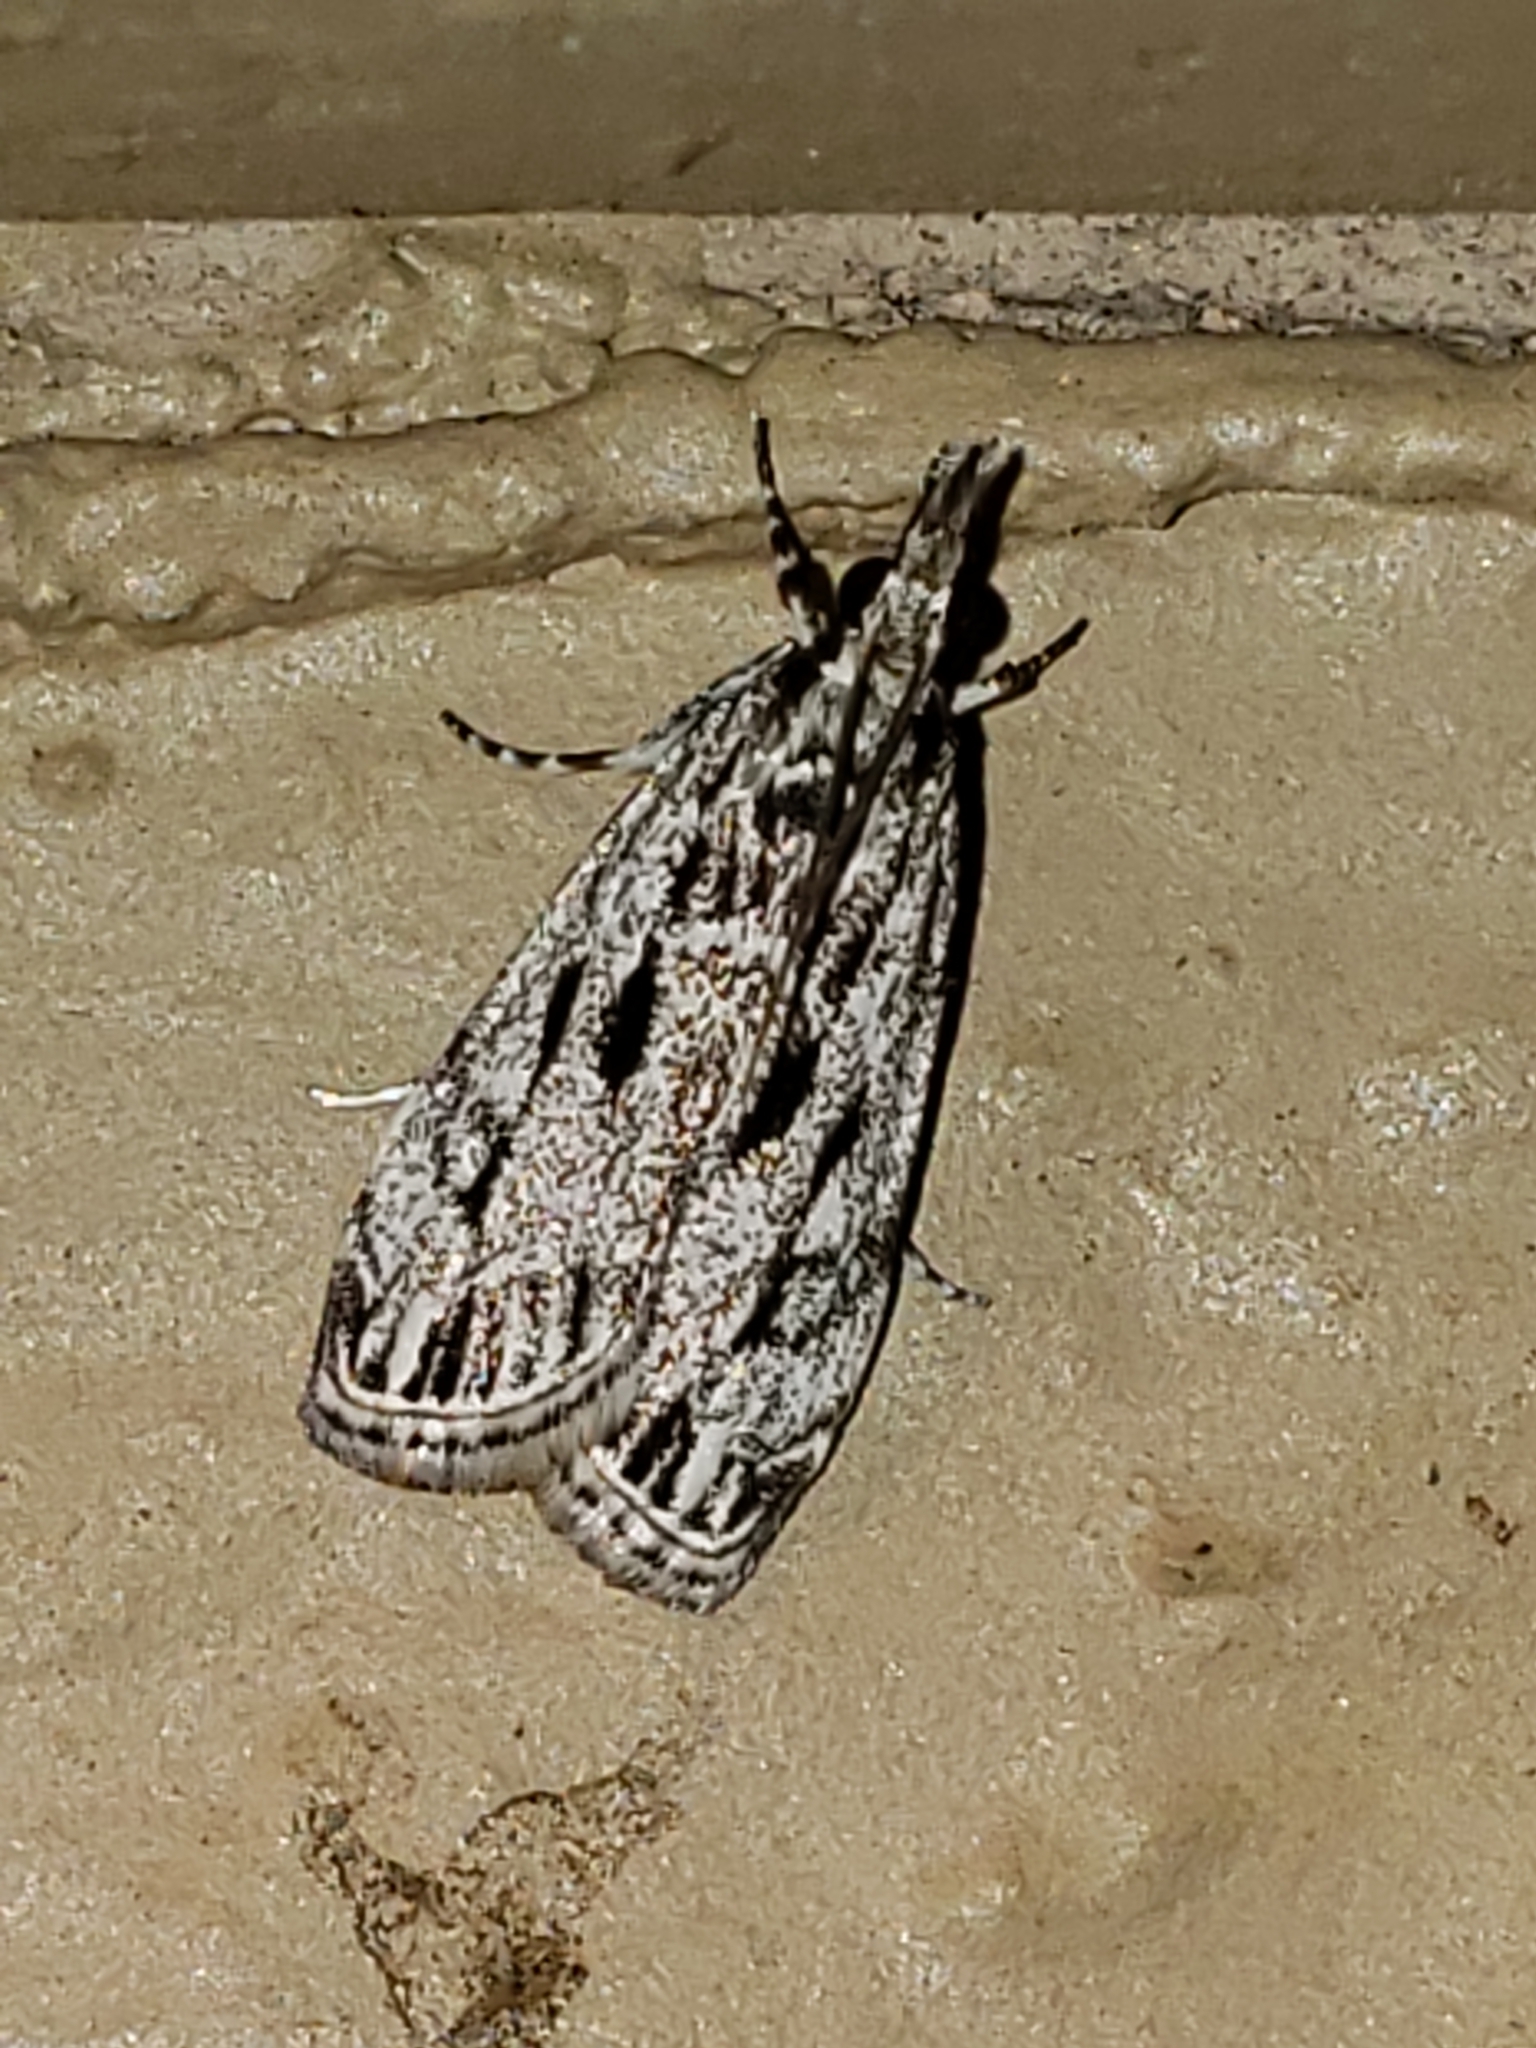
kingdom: Animalia
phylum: Arthropoda
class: Insecta
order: Lepidoptera
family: Crambidae
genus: Eudonia
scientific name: Eudonia strigalis
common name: Striped eudonia moth
